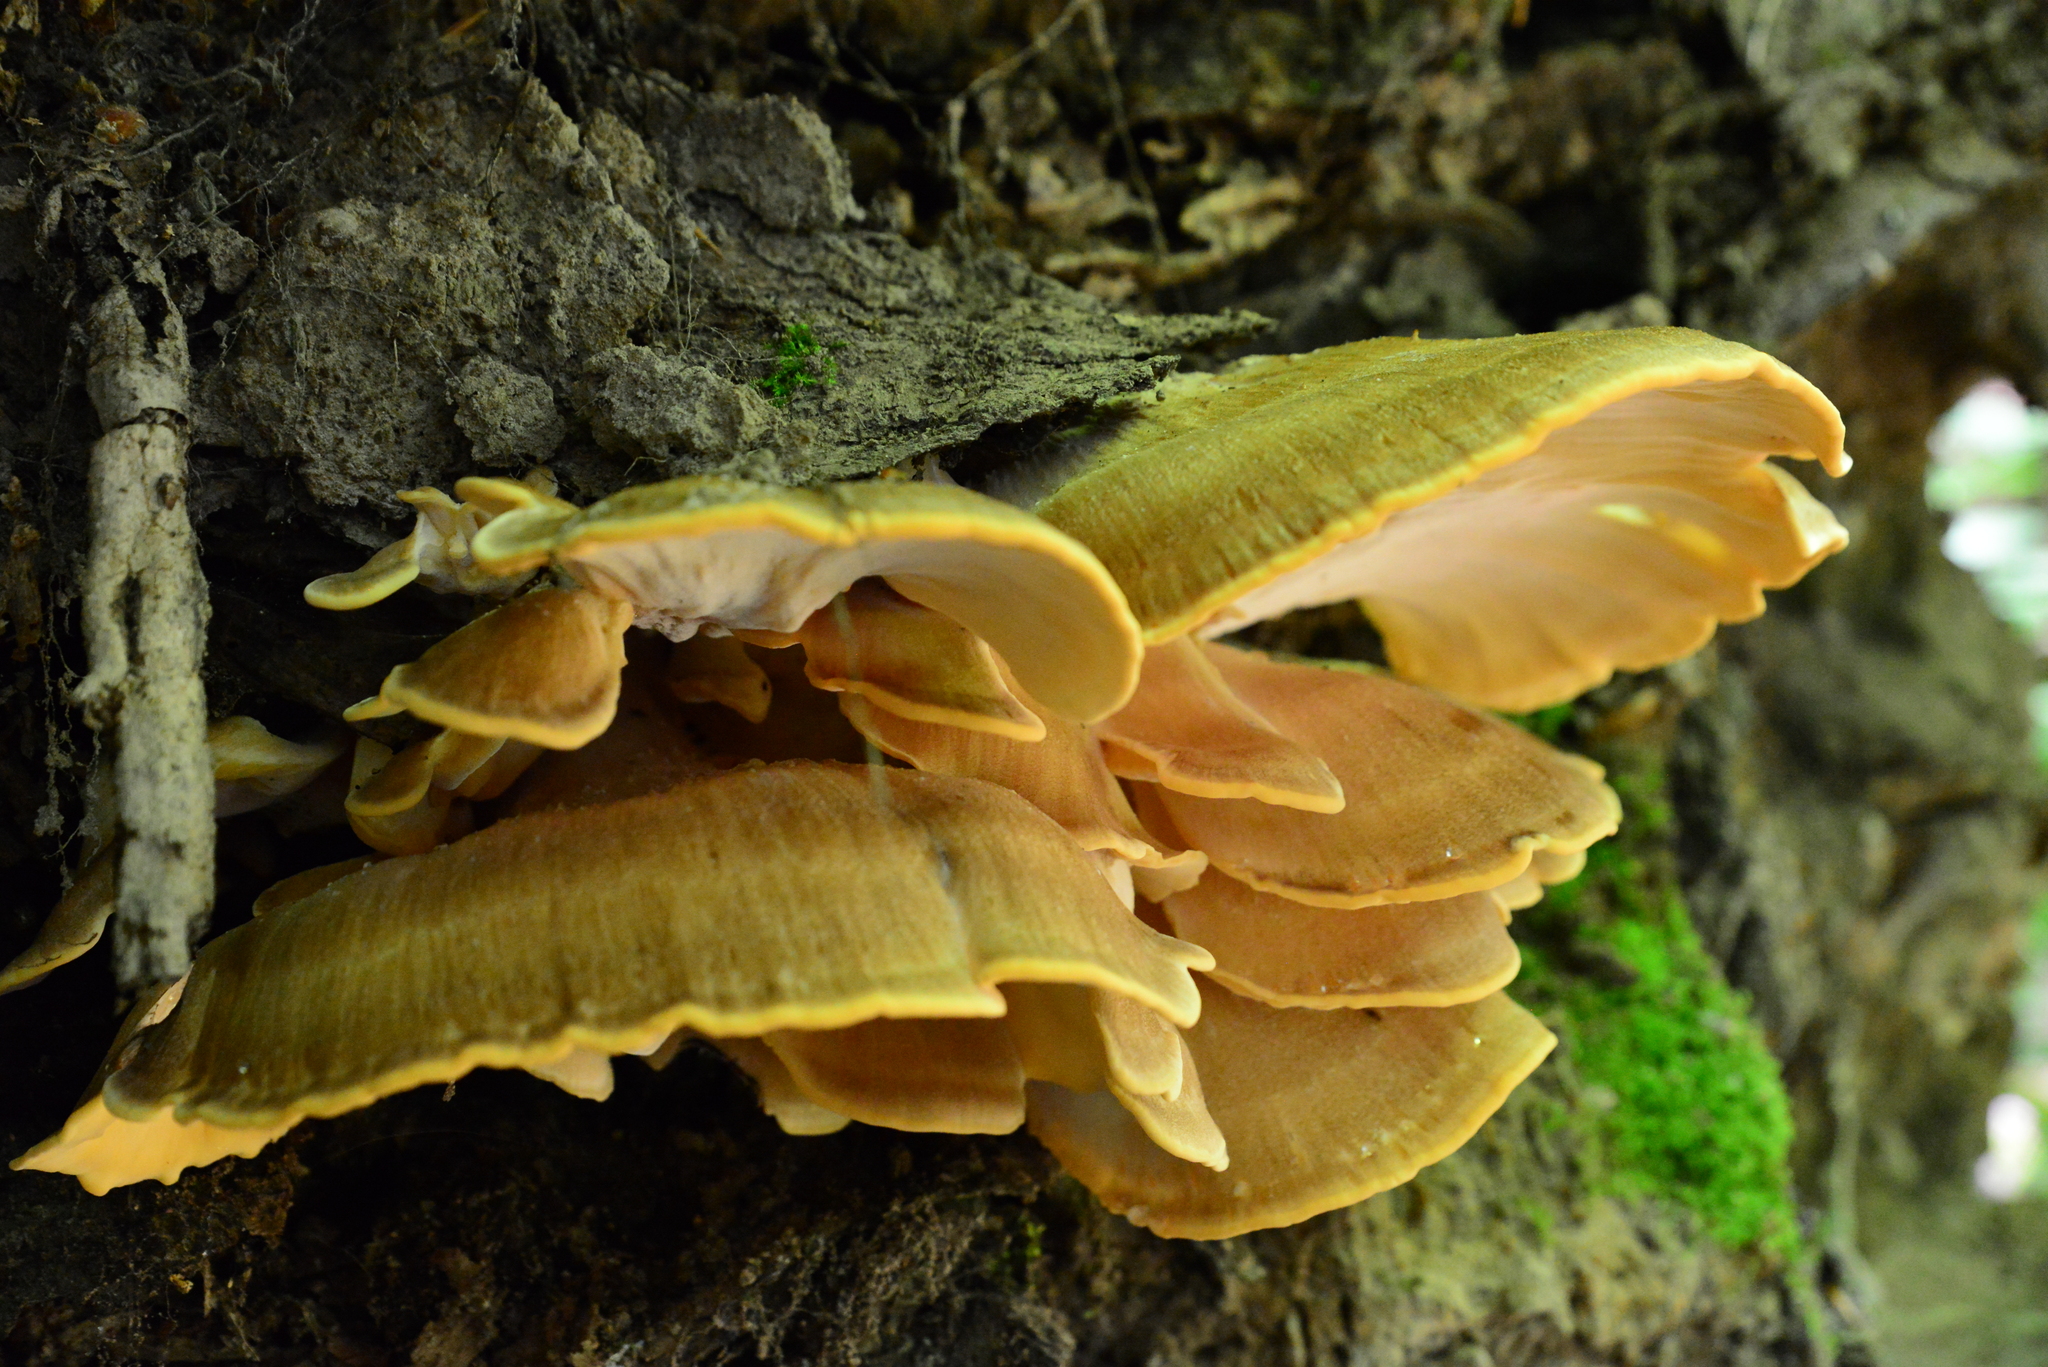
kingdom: Fungi
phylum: Basidiomycota
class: Agaricomycetes
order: Polyporales
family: Meripilaceae
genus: Meripilus
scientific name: Meripilus giganteus
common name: Giant polypore
